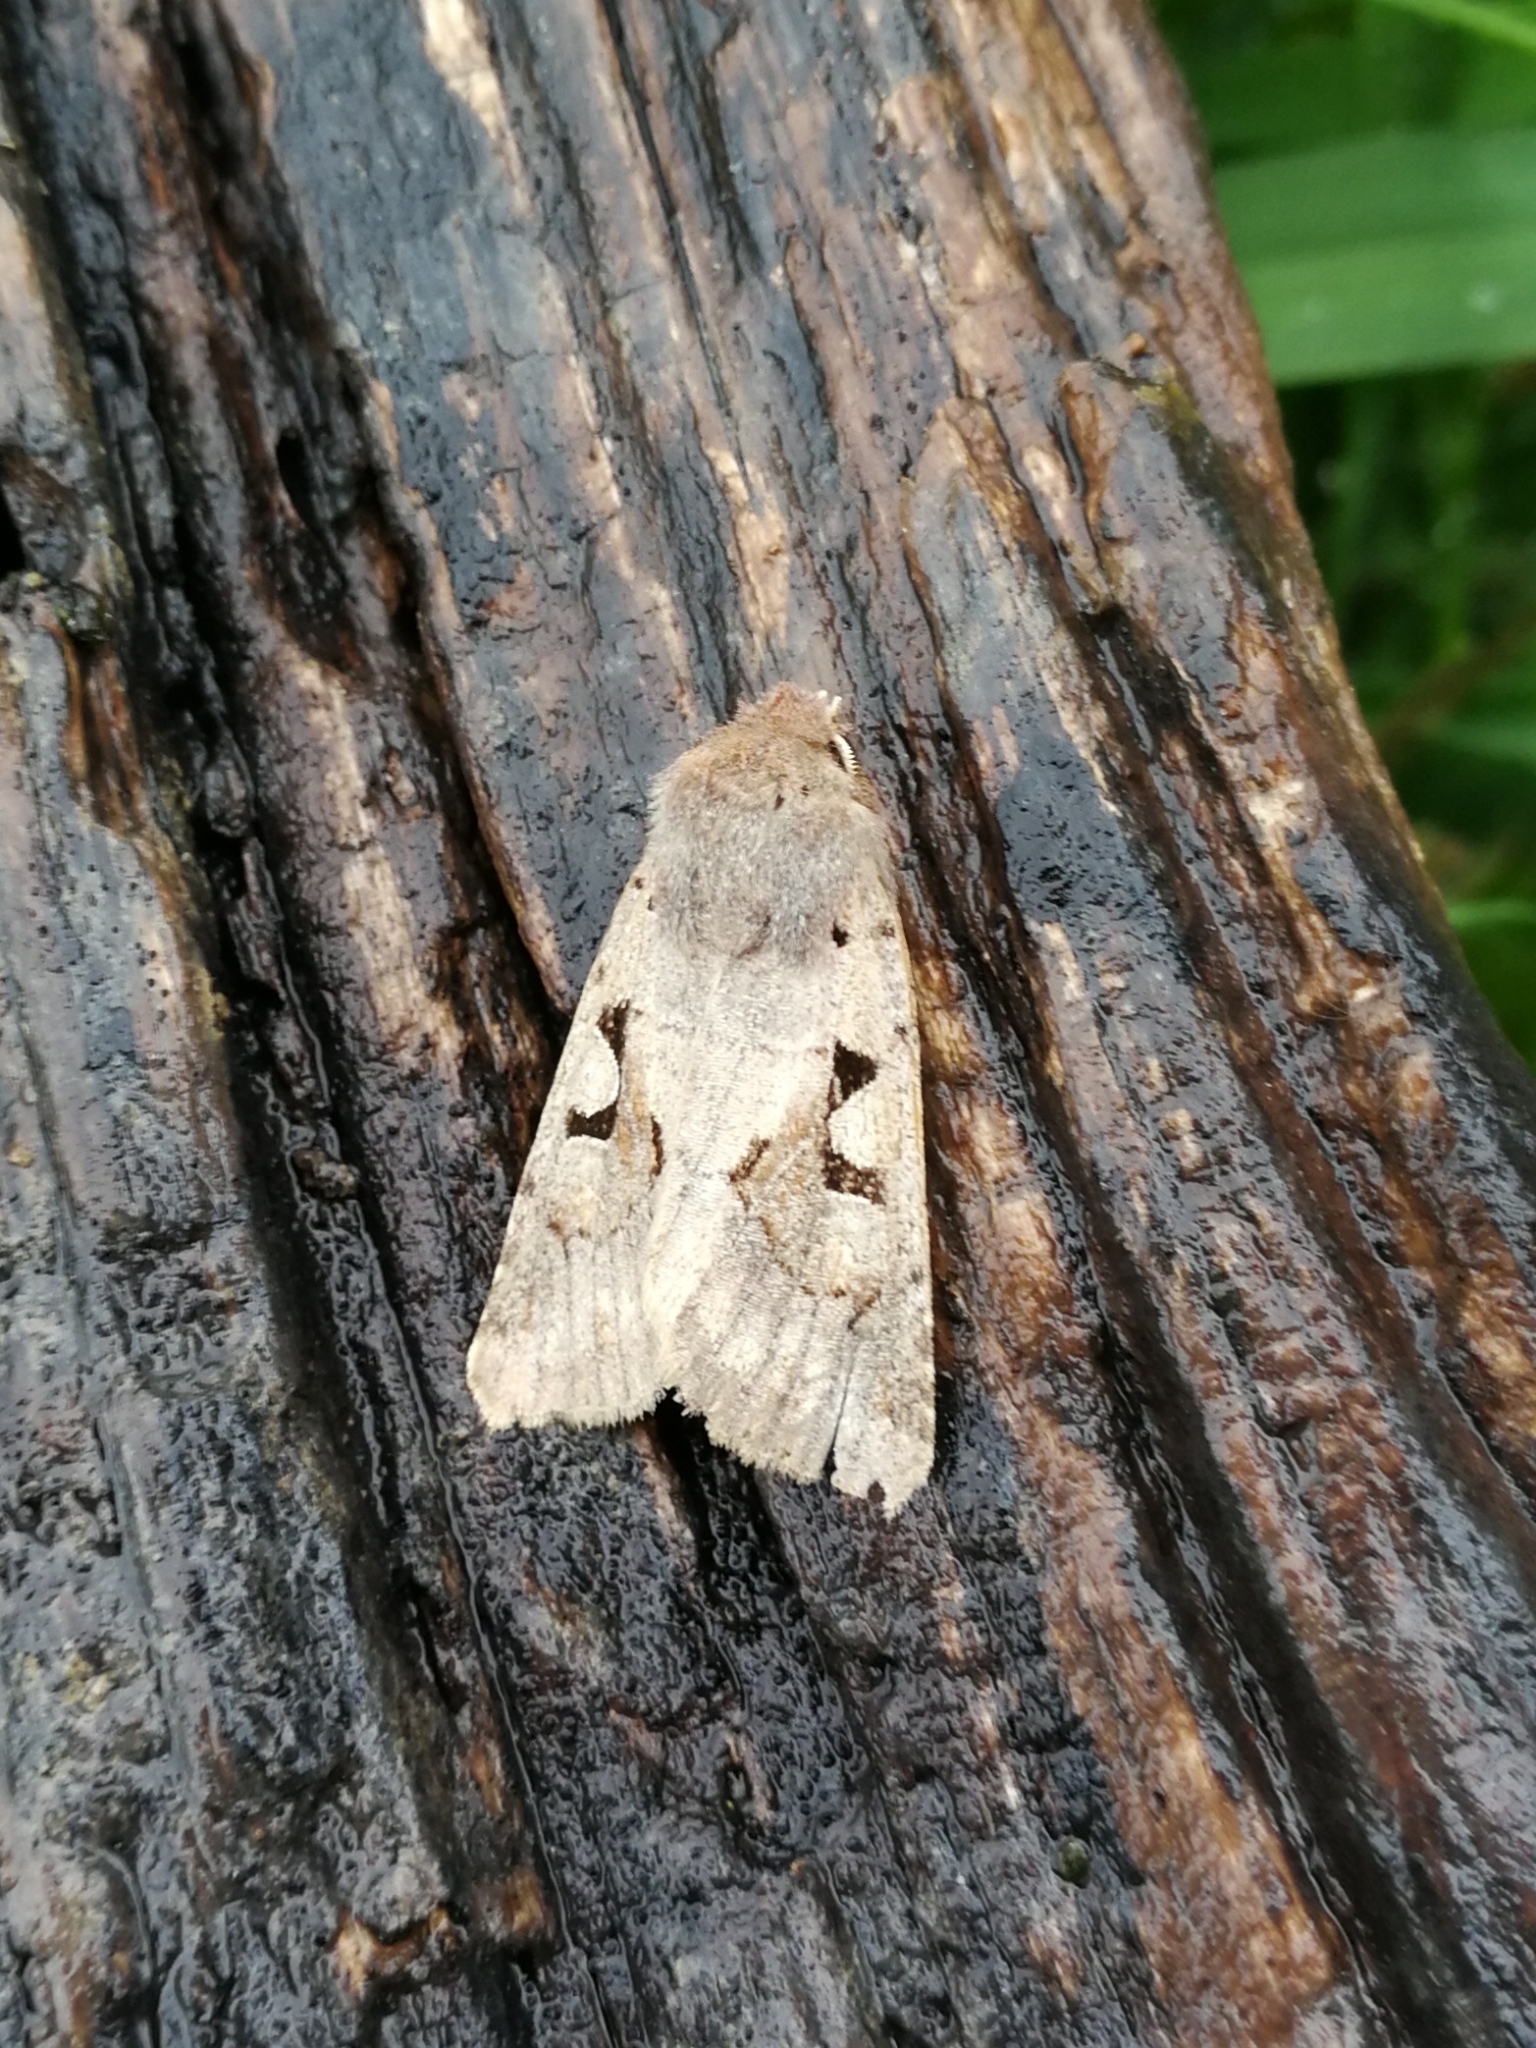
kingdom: Animalia
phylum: Arthropoda
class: Insecta
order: Lepidoptera
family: Noctuidae
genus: Orthosia
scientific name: Orthosia gothica
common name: Hebrew character
